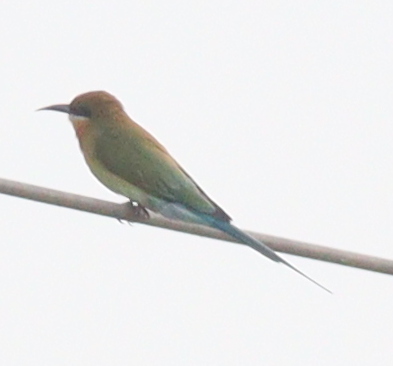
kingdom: Animalia
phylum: Chordata
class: Aves
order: Coraciiformes
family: Meropidae
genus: Merops
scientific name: Merops philippinus
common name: Blue-tailed bee-eater
